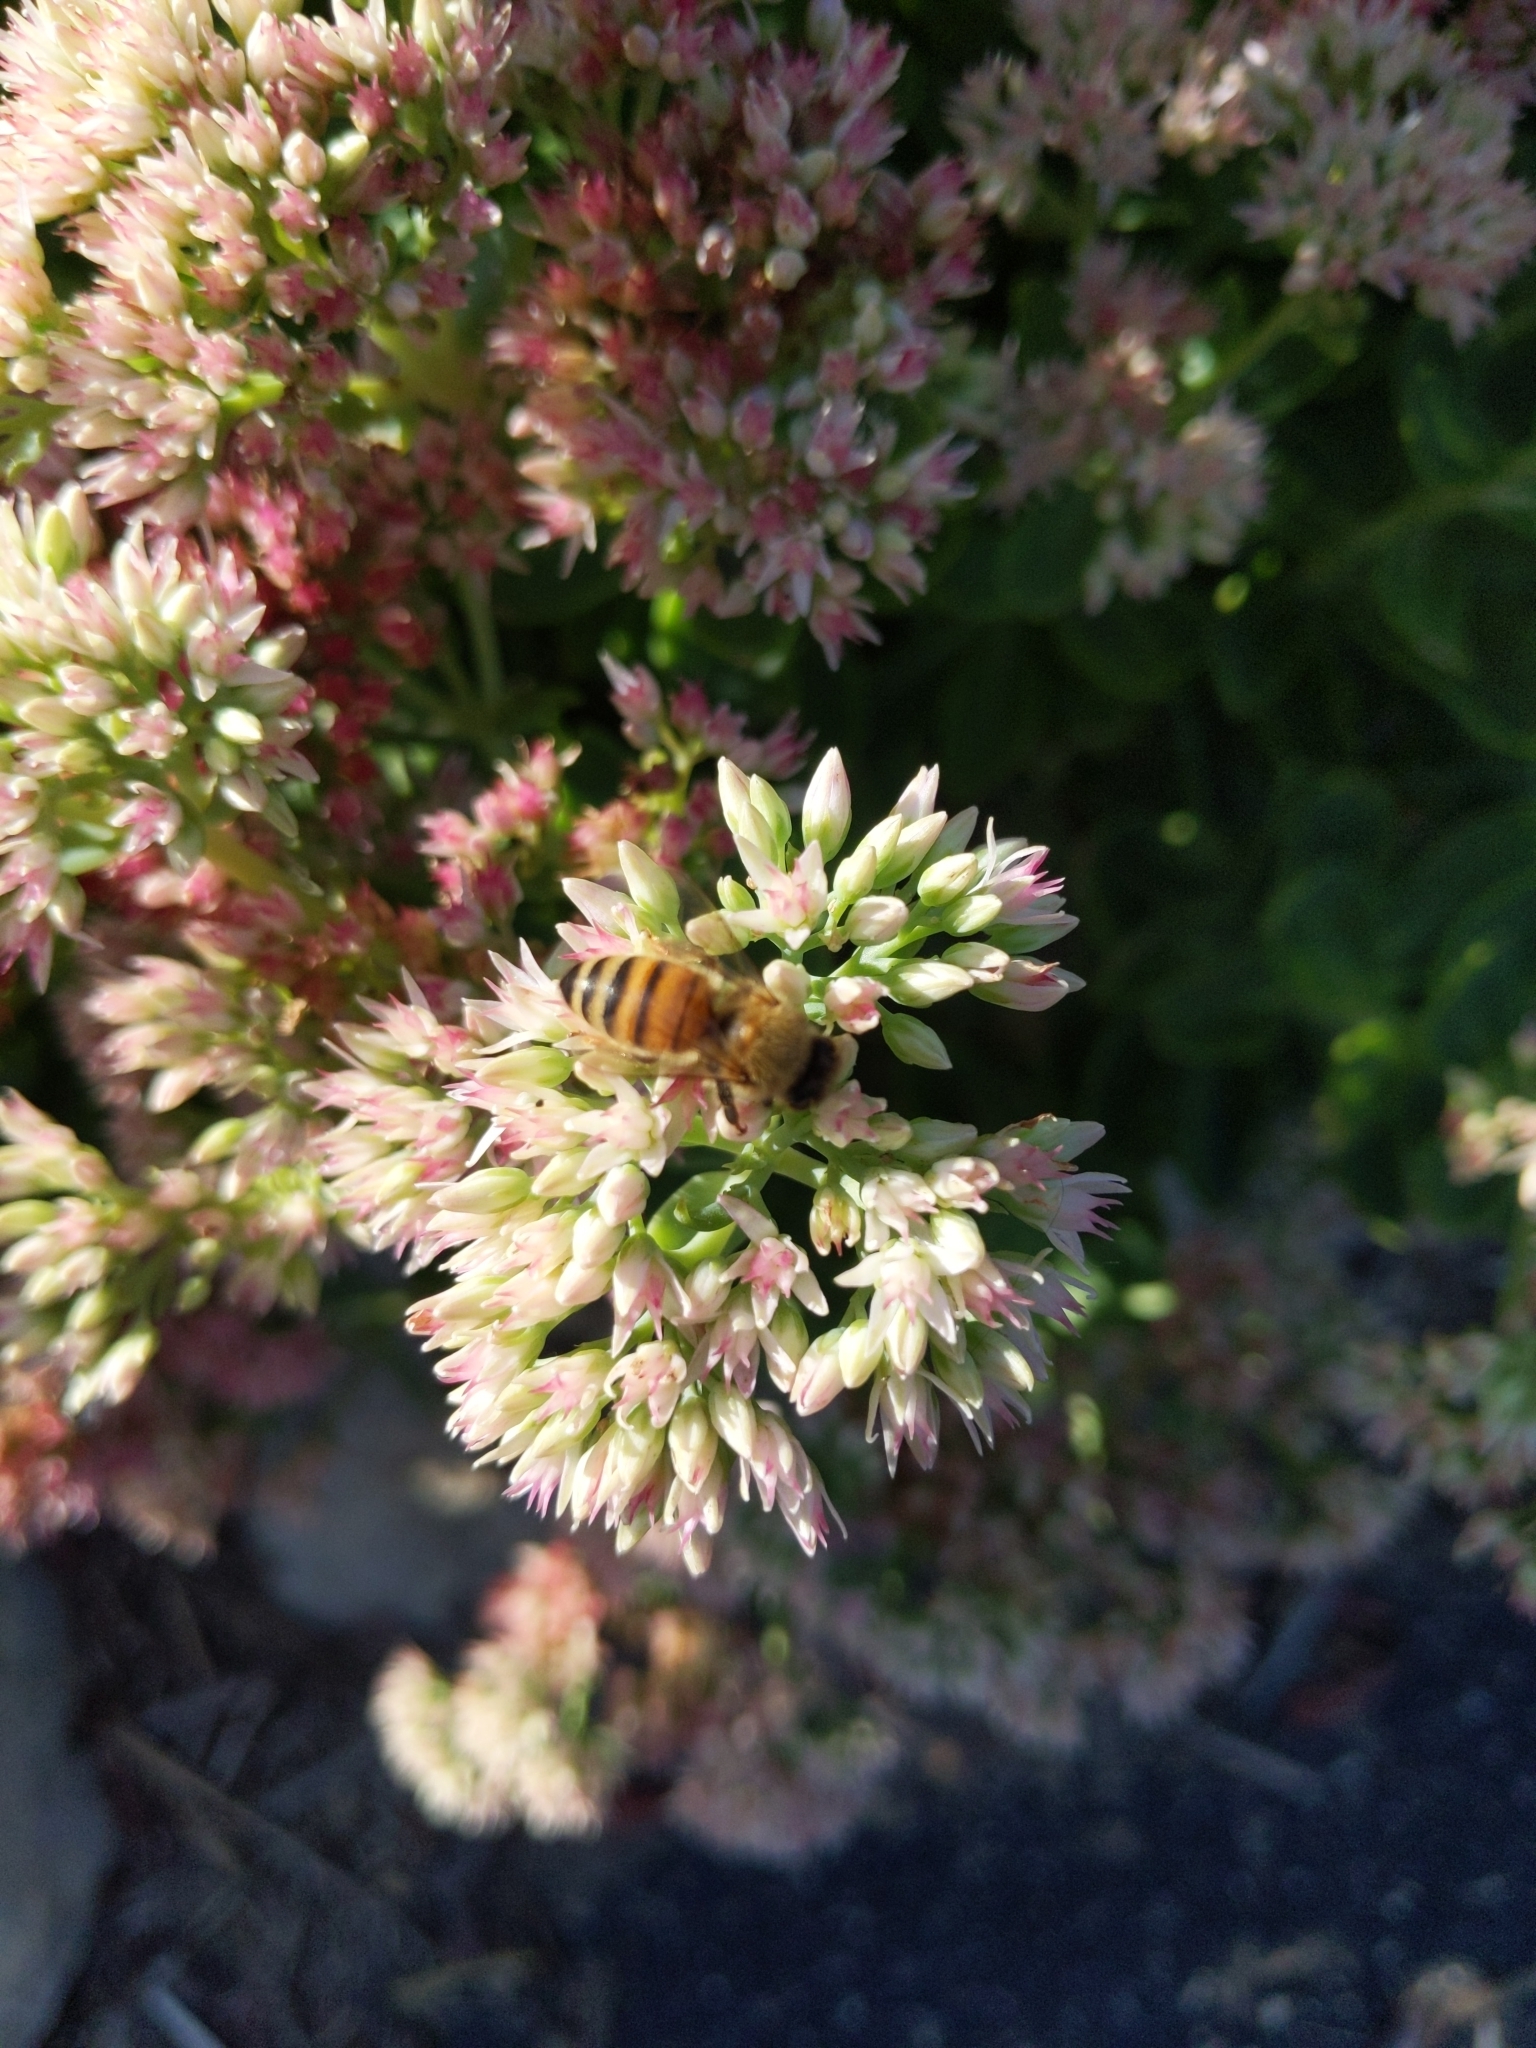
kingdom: Animalia
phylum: Arthropoda
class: Insecta
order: Hymenoptera
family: Apidae
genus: Apis
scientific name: Apis mellifera
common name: Honey bee
